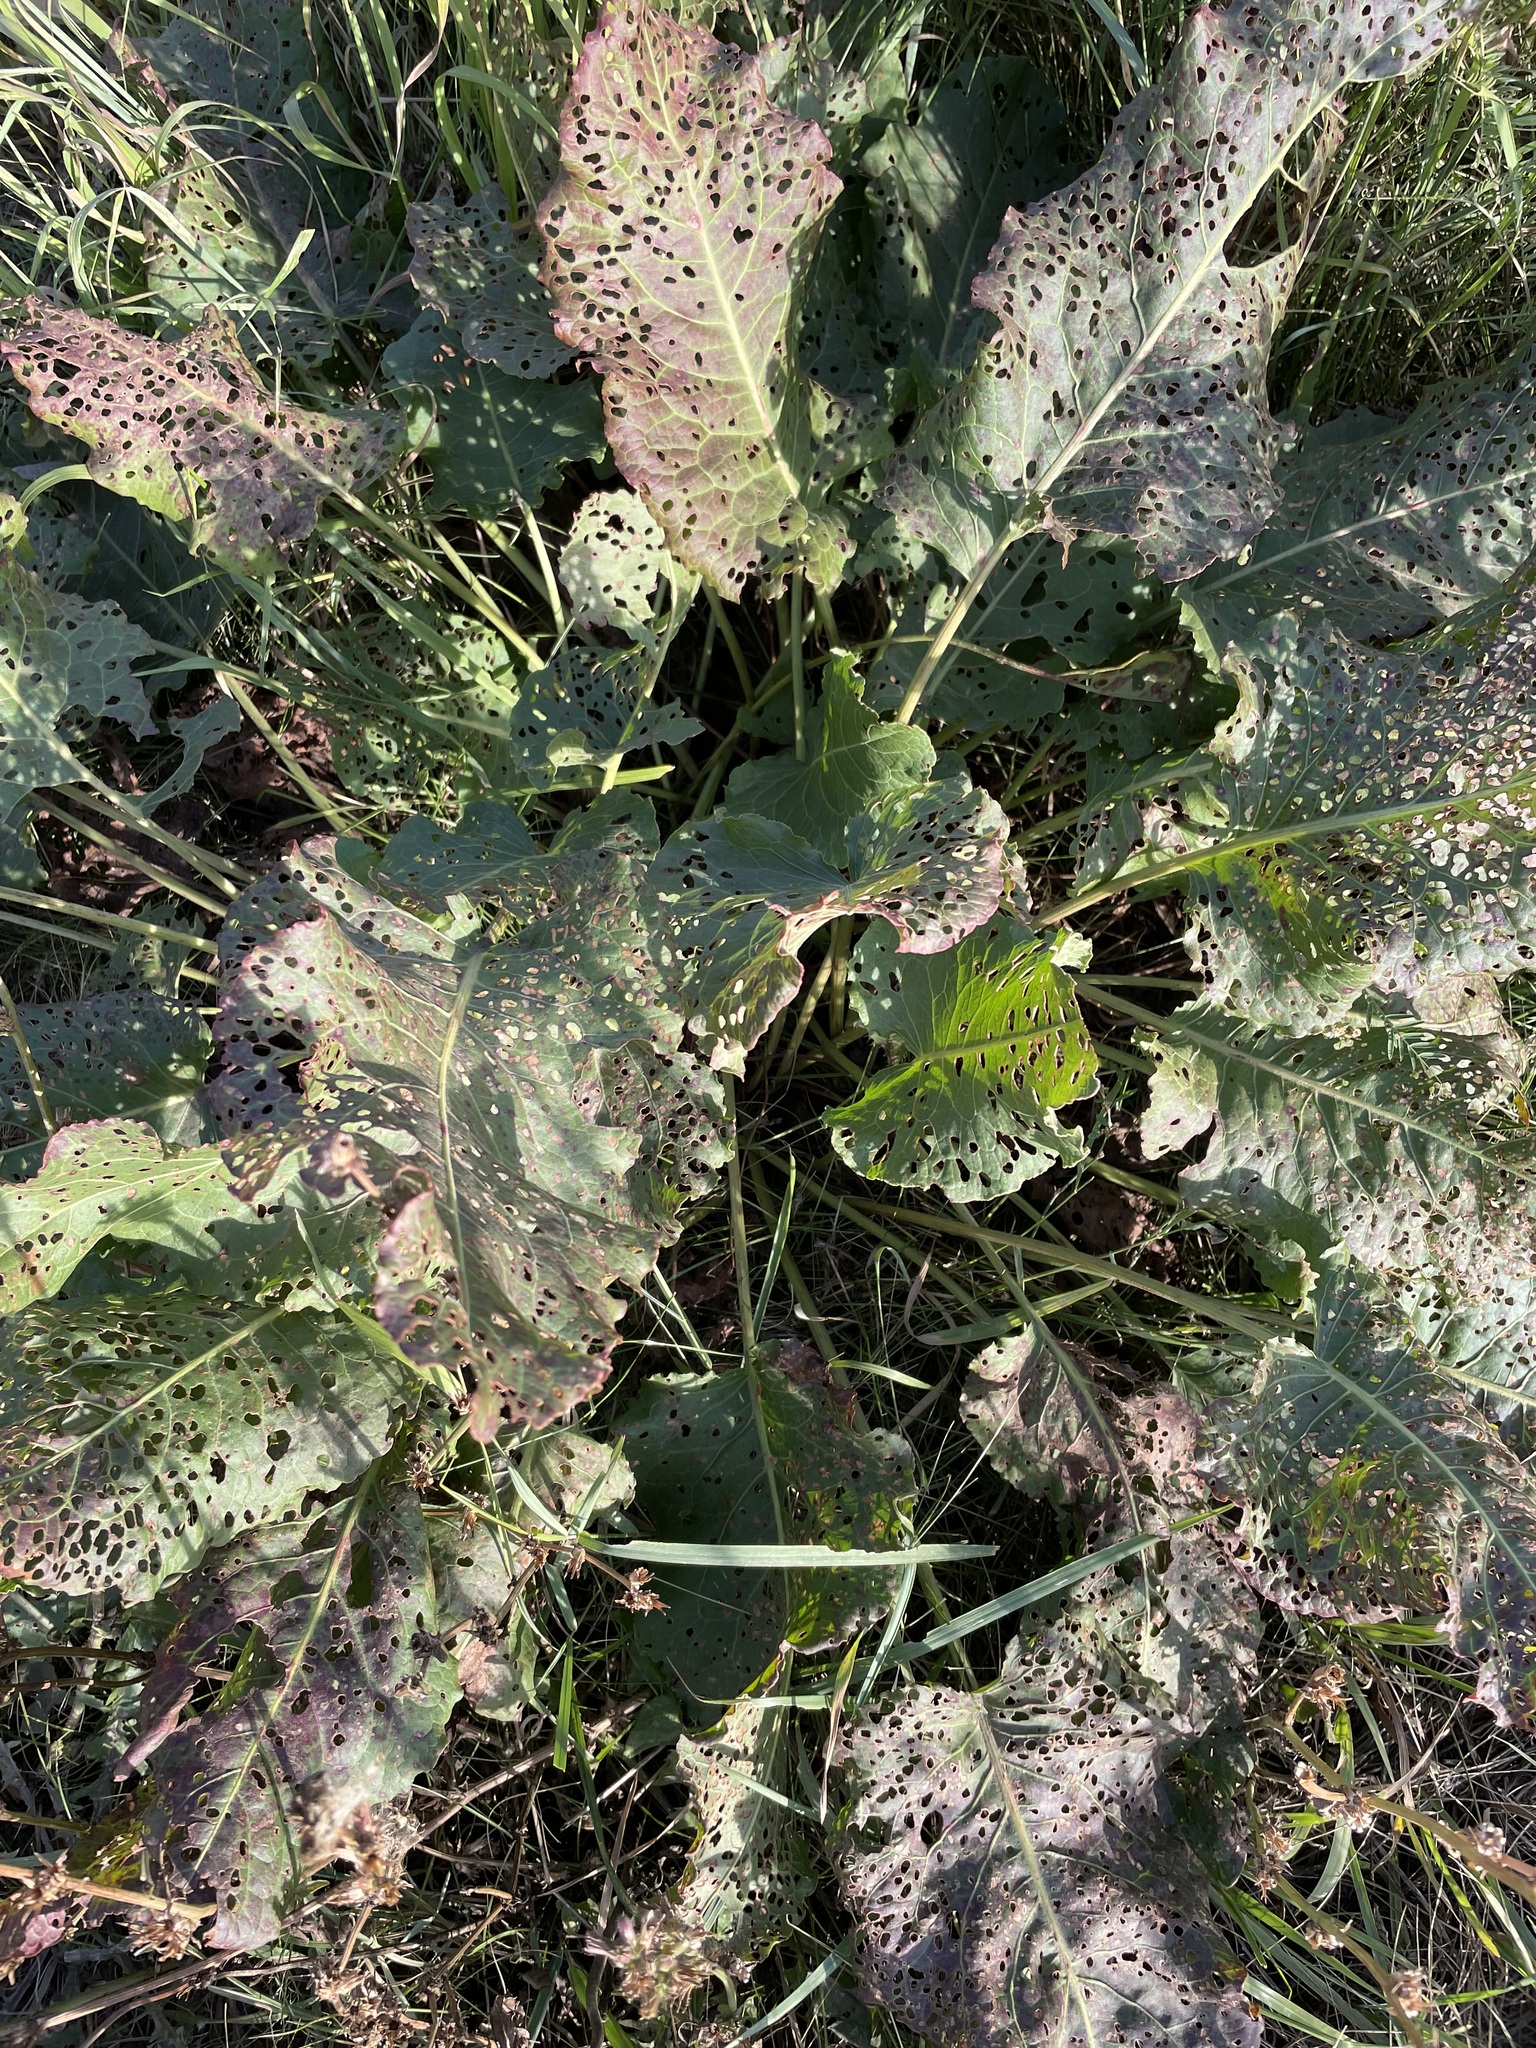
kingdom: Plantae
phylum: Tracheophyta
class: Magnoliopsida
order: Caryophyllales
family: Polygonaceae
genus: Rumex
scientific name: Rumex confertus
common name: Russian dock
